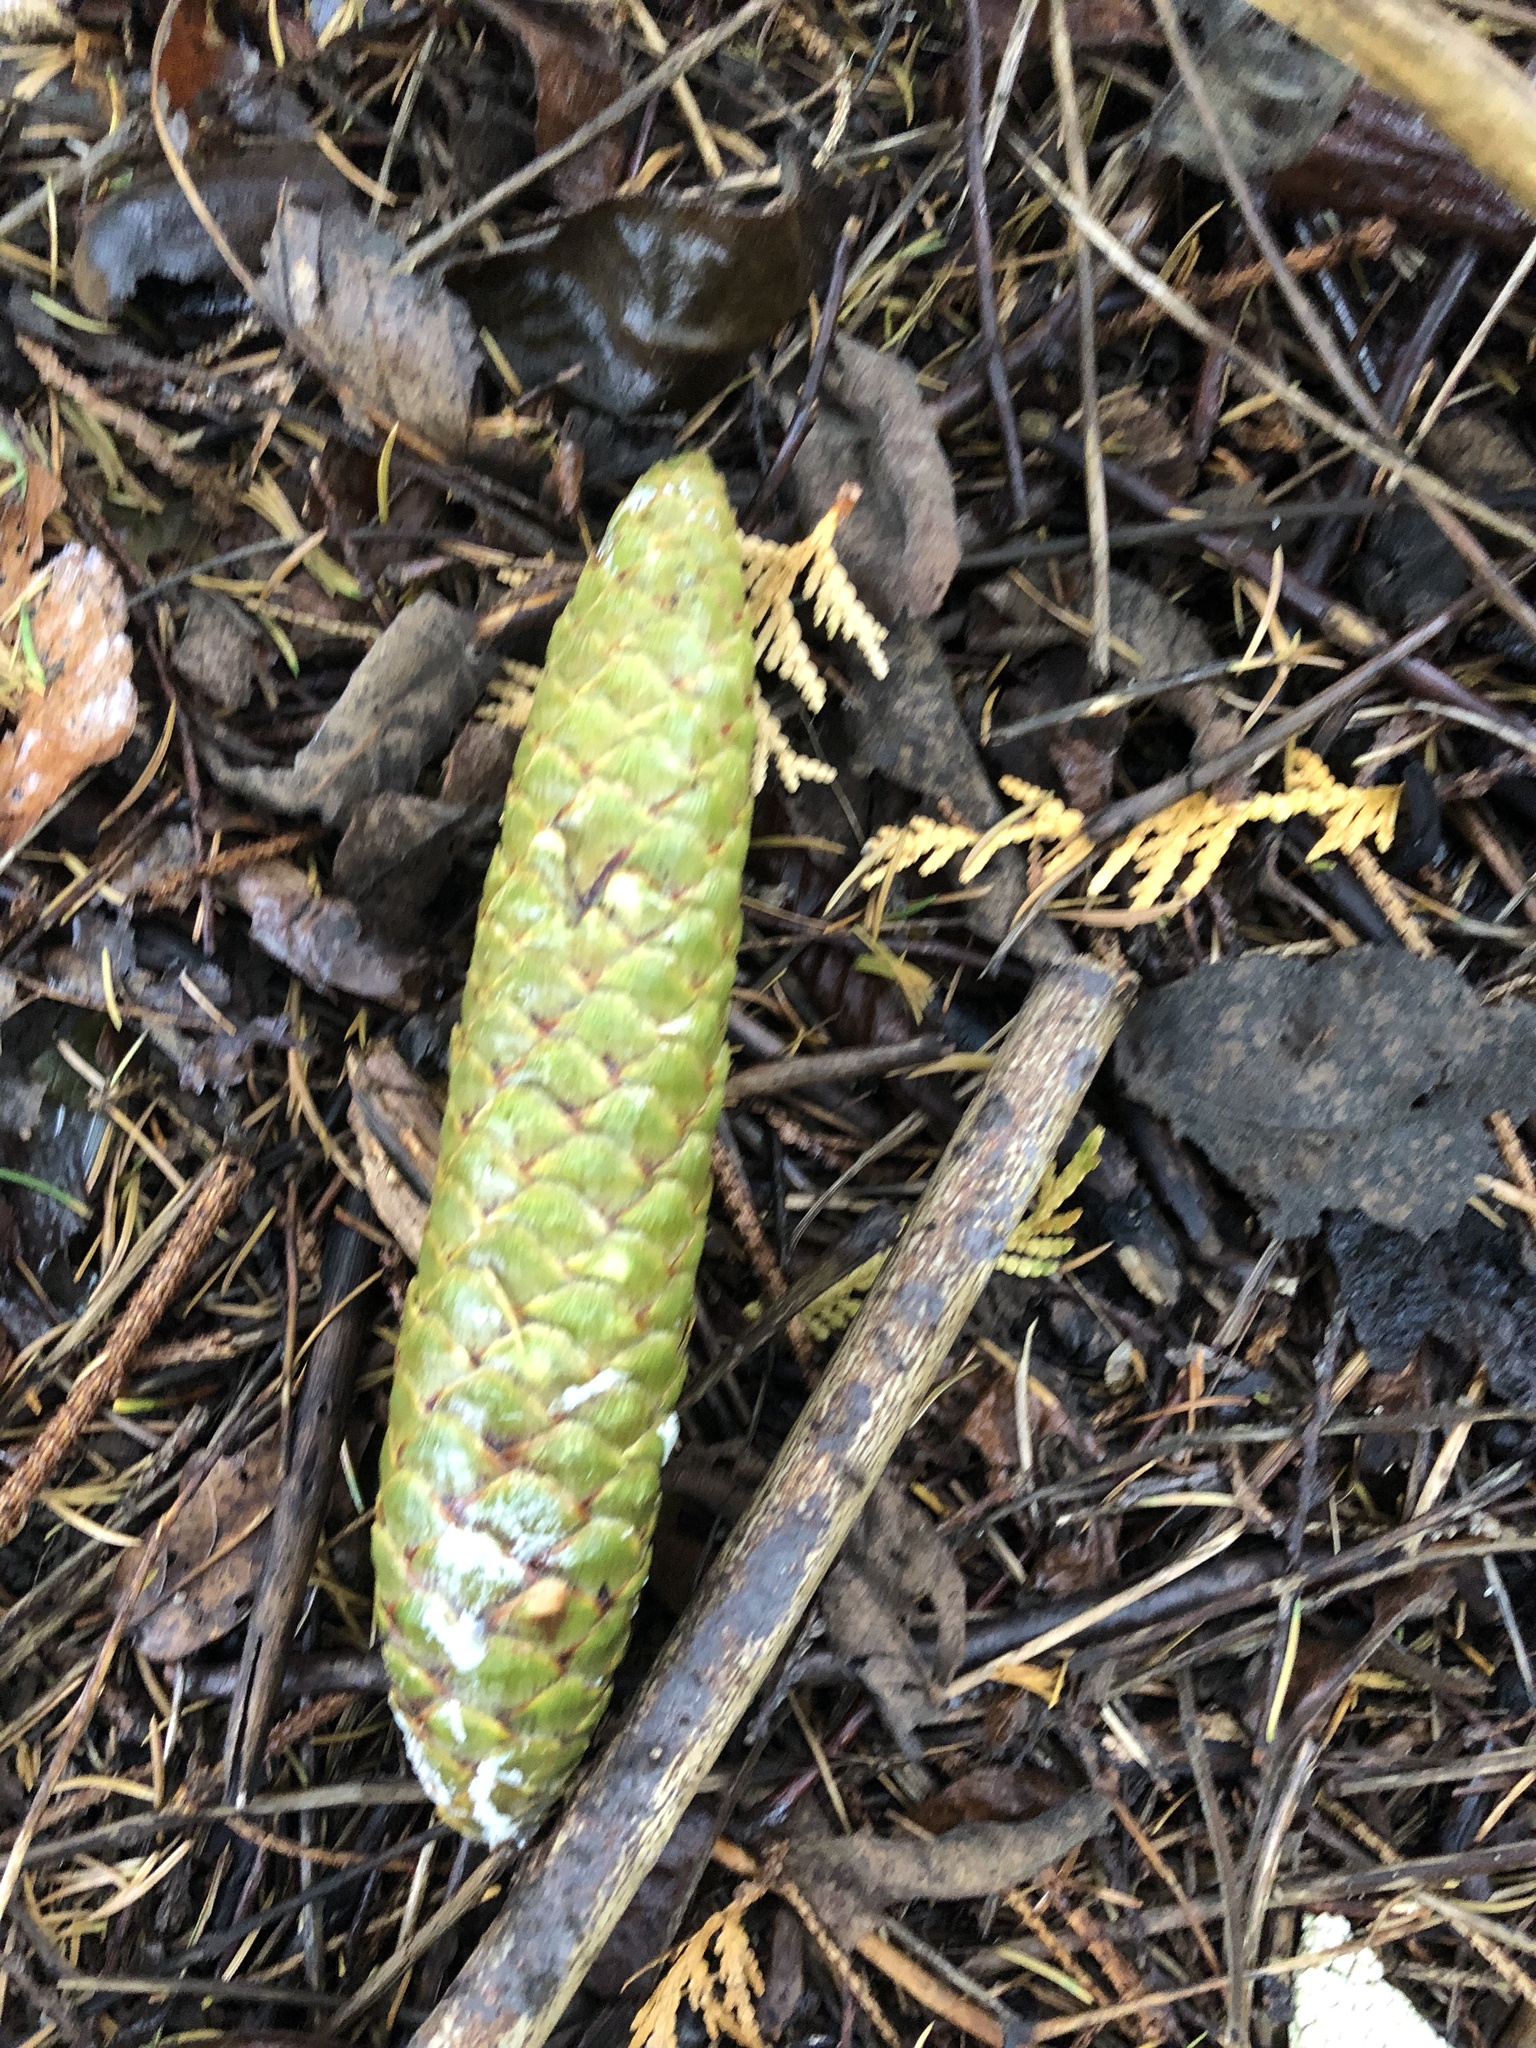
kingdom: Plantae
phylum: Tracheophyta
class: Pinopsida
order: Pinales
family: Pinaceae
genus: Picea
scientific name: Picea abies
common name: Norway spruce
